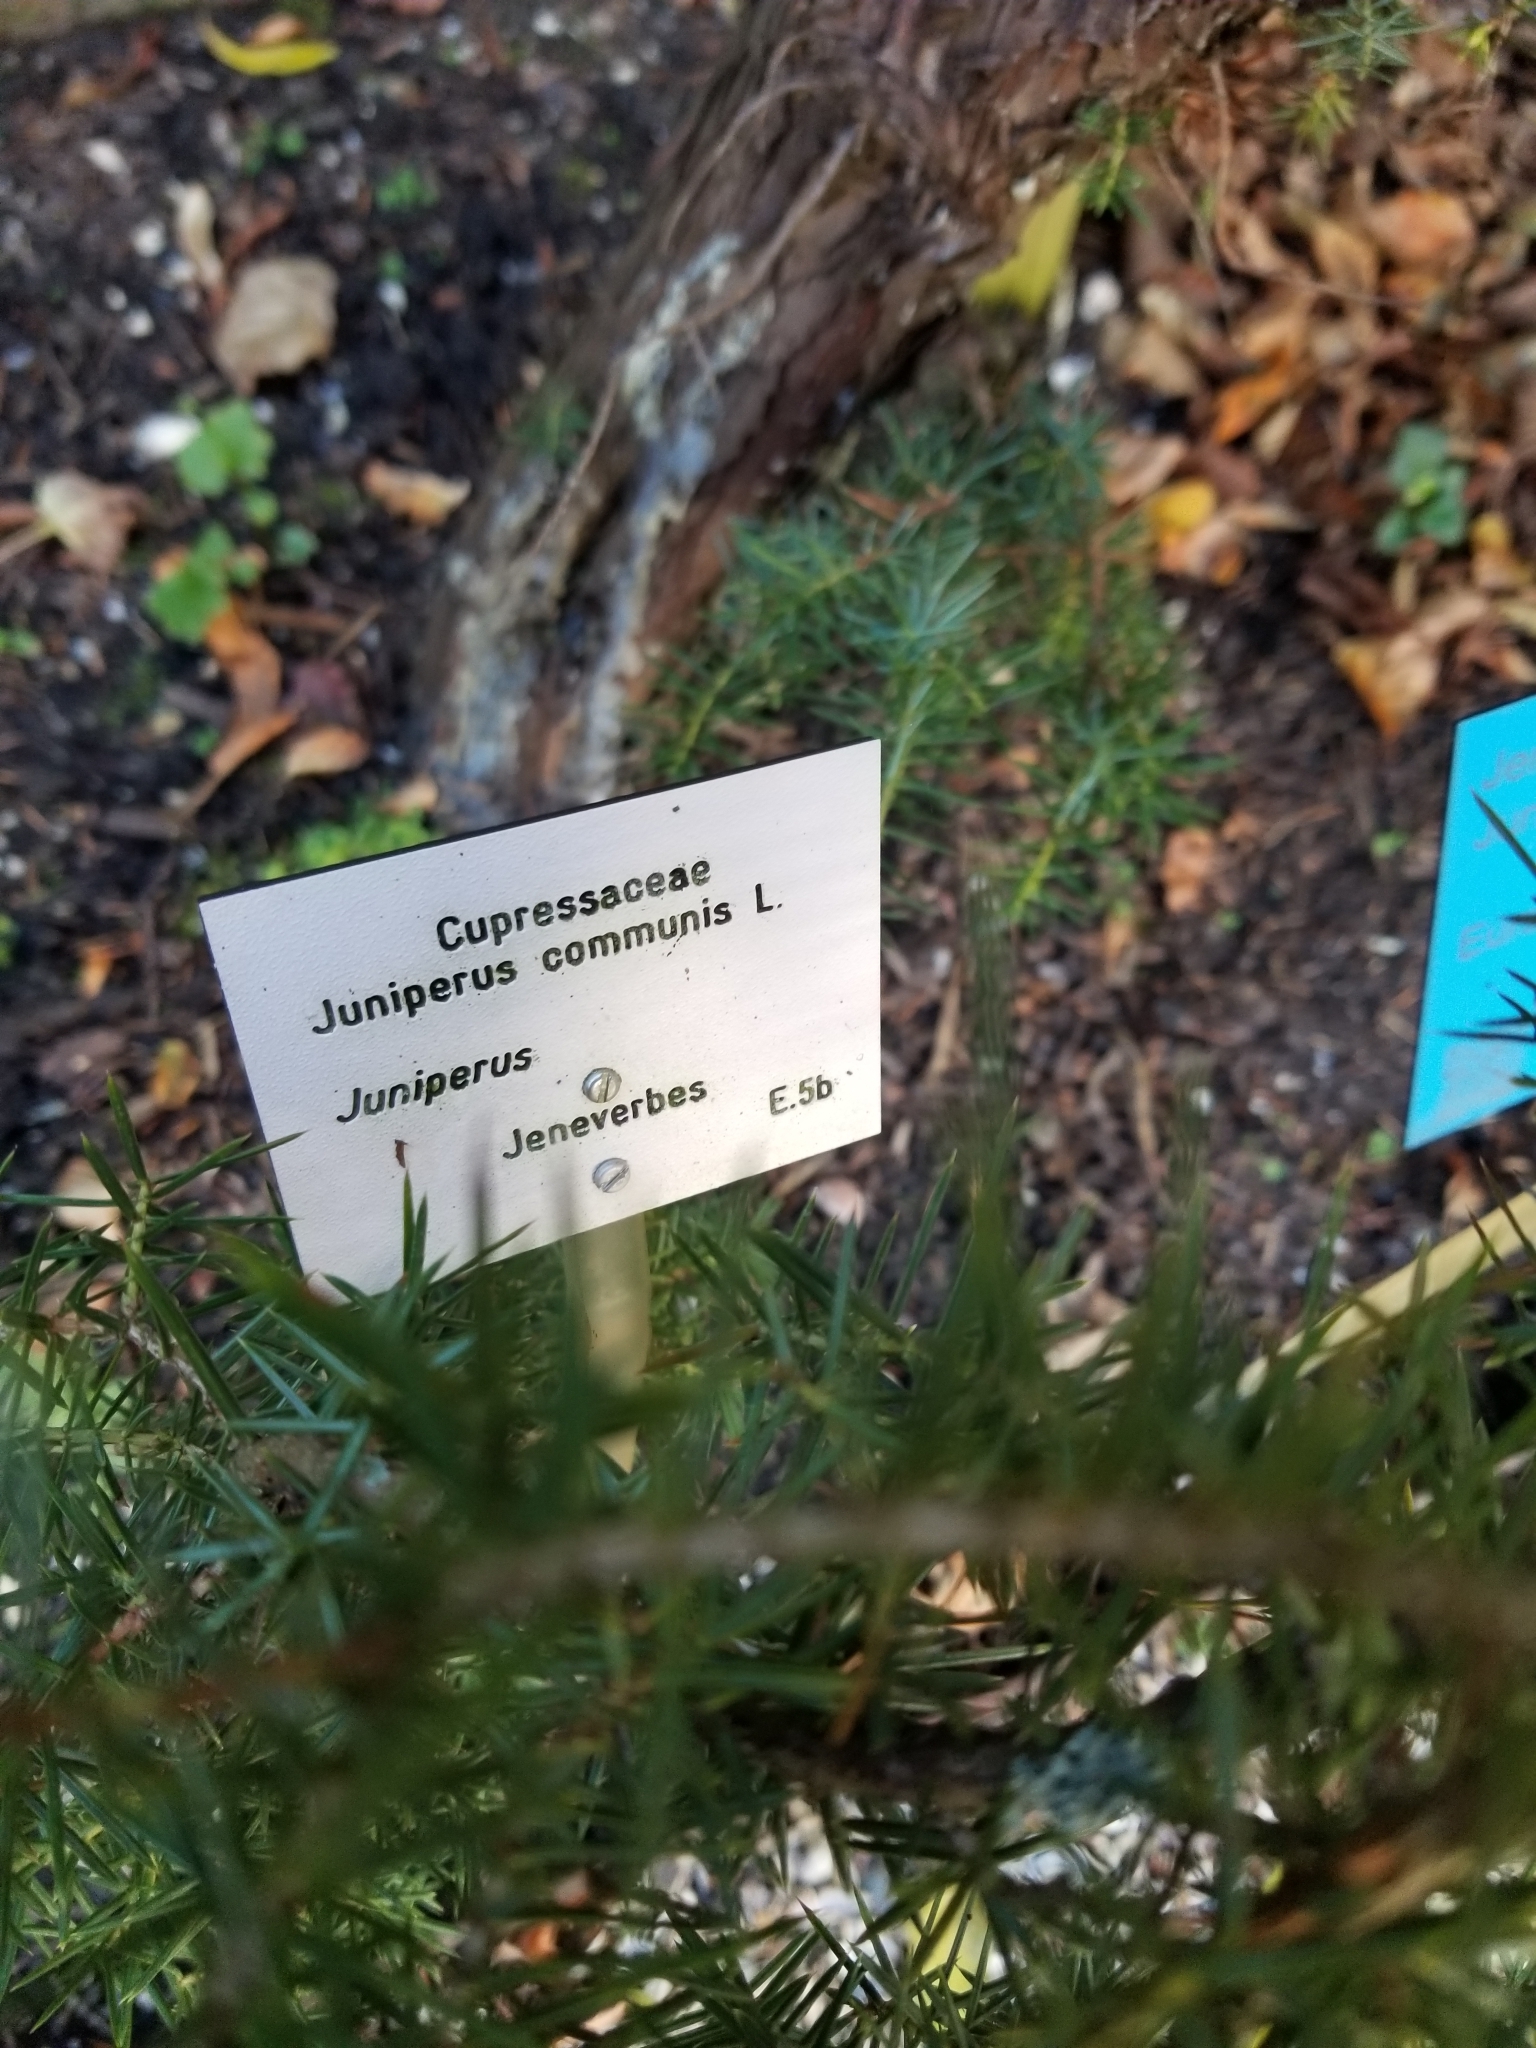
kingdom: Fungi
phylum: Ascomycota
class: Lecanoromycetes
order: Caliciales
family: Physciaceae
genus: Physcia
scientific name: Physcia adscendens
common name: Hooded rosette lichen
